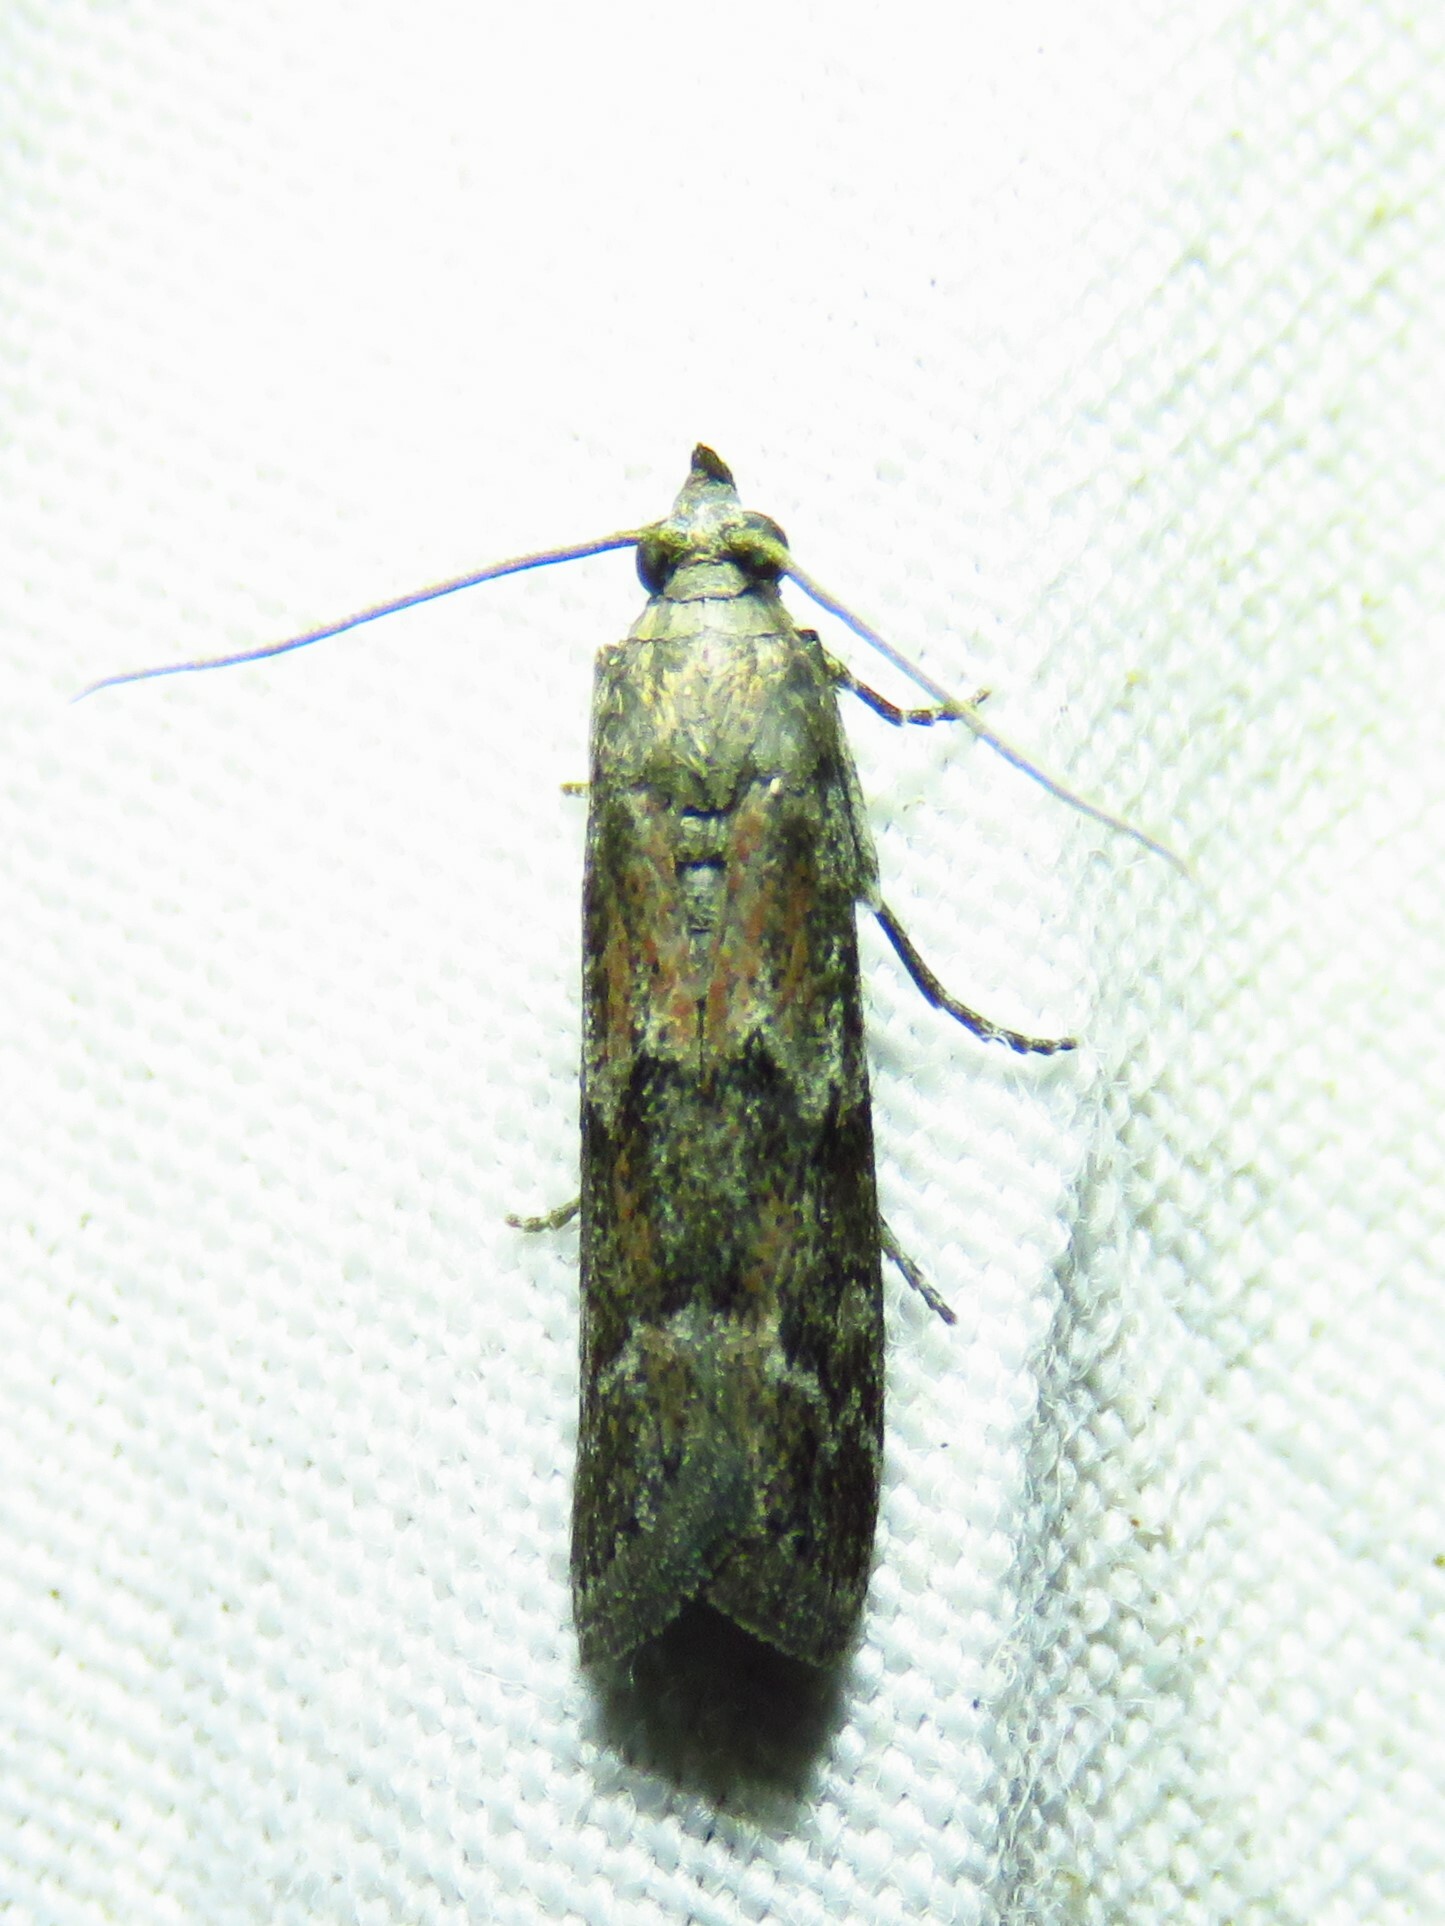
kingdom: Animalia
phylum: Arthropoda
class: Insecta
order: Lepidoptera
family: Pyralidae
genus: Ephestiodes
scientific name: Ephestiodes infimella
